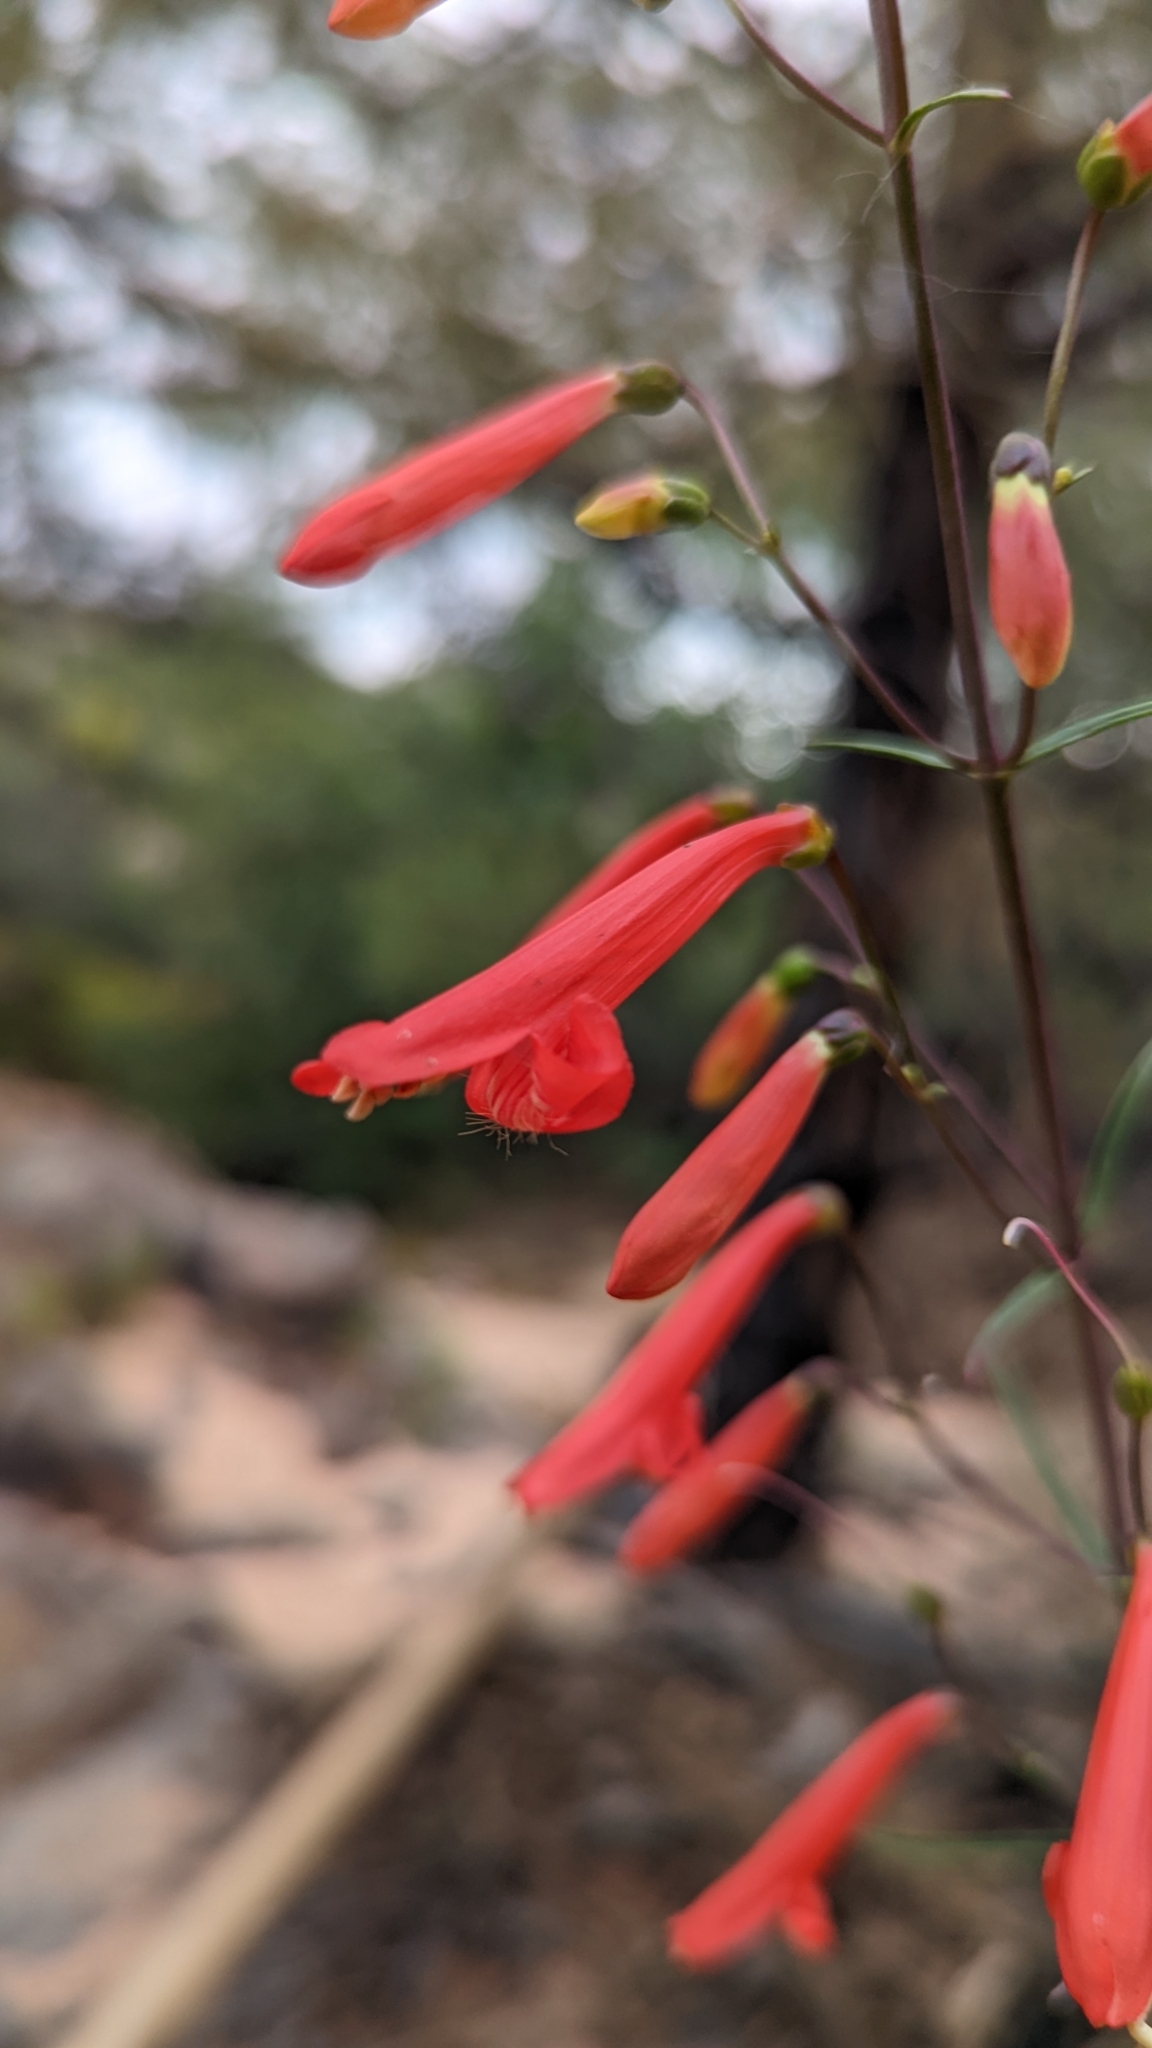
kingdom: Plantae
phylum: Tracheophyta
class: Magnoliopsida
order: Lamiales
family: Plantaginaceae
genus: Penstemon
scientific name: Penstemon barbatus
